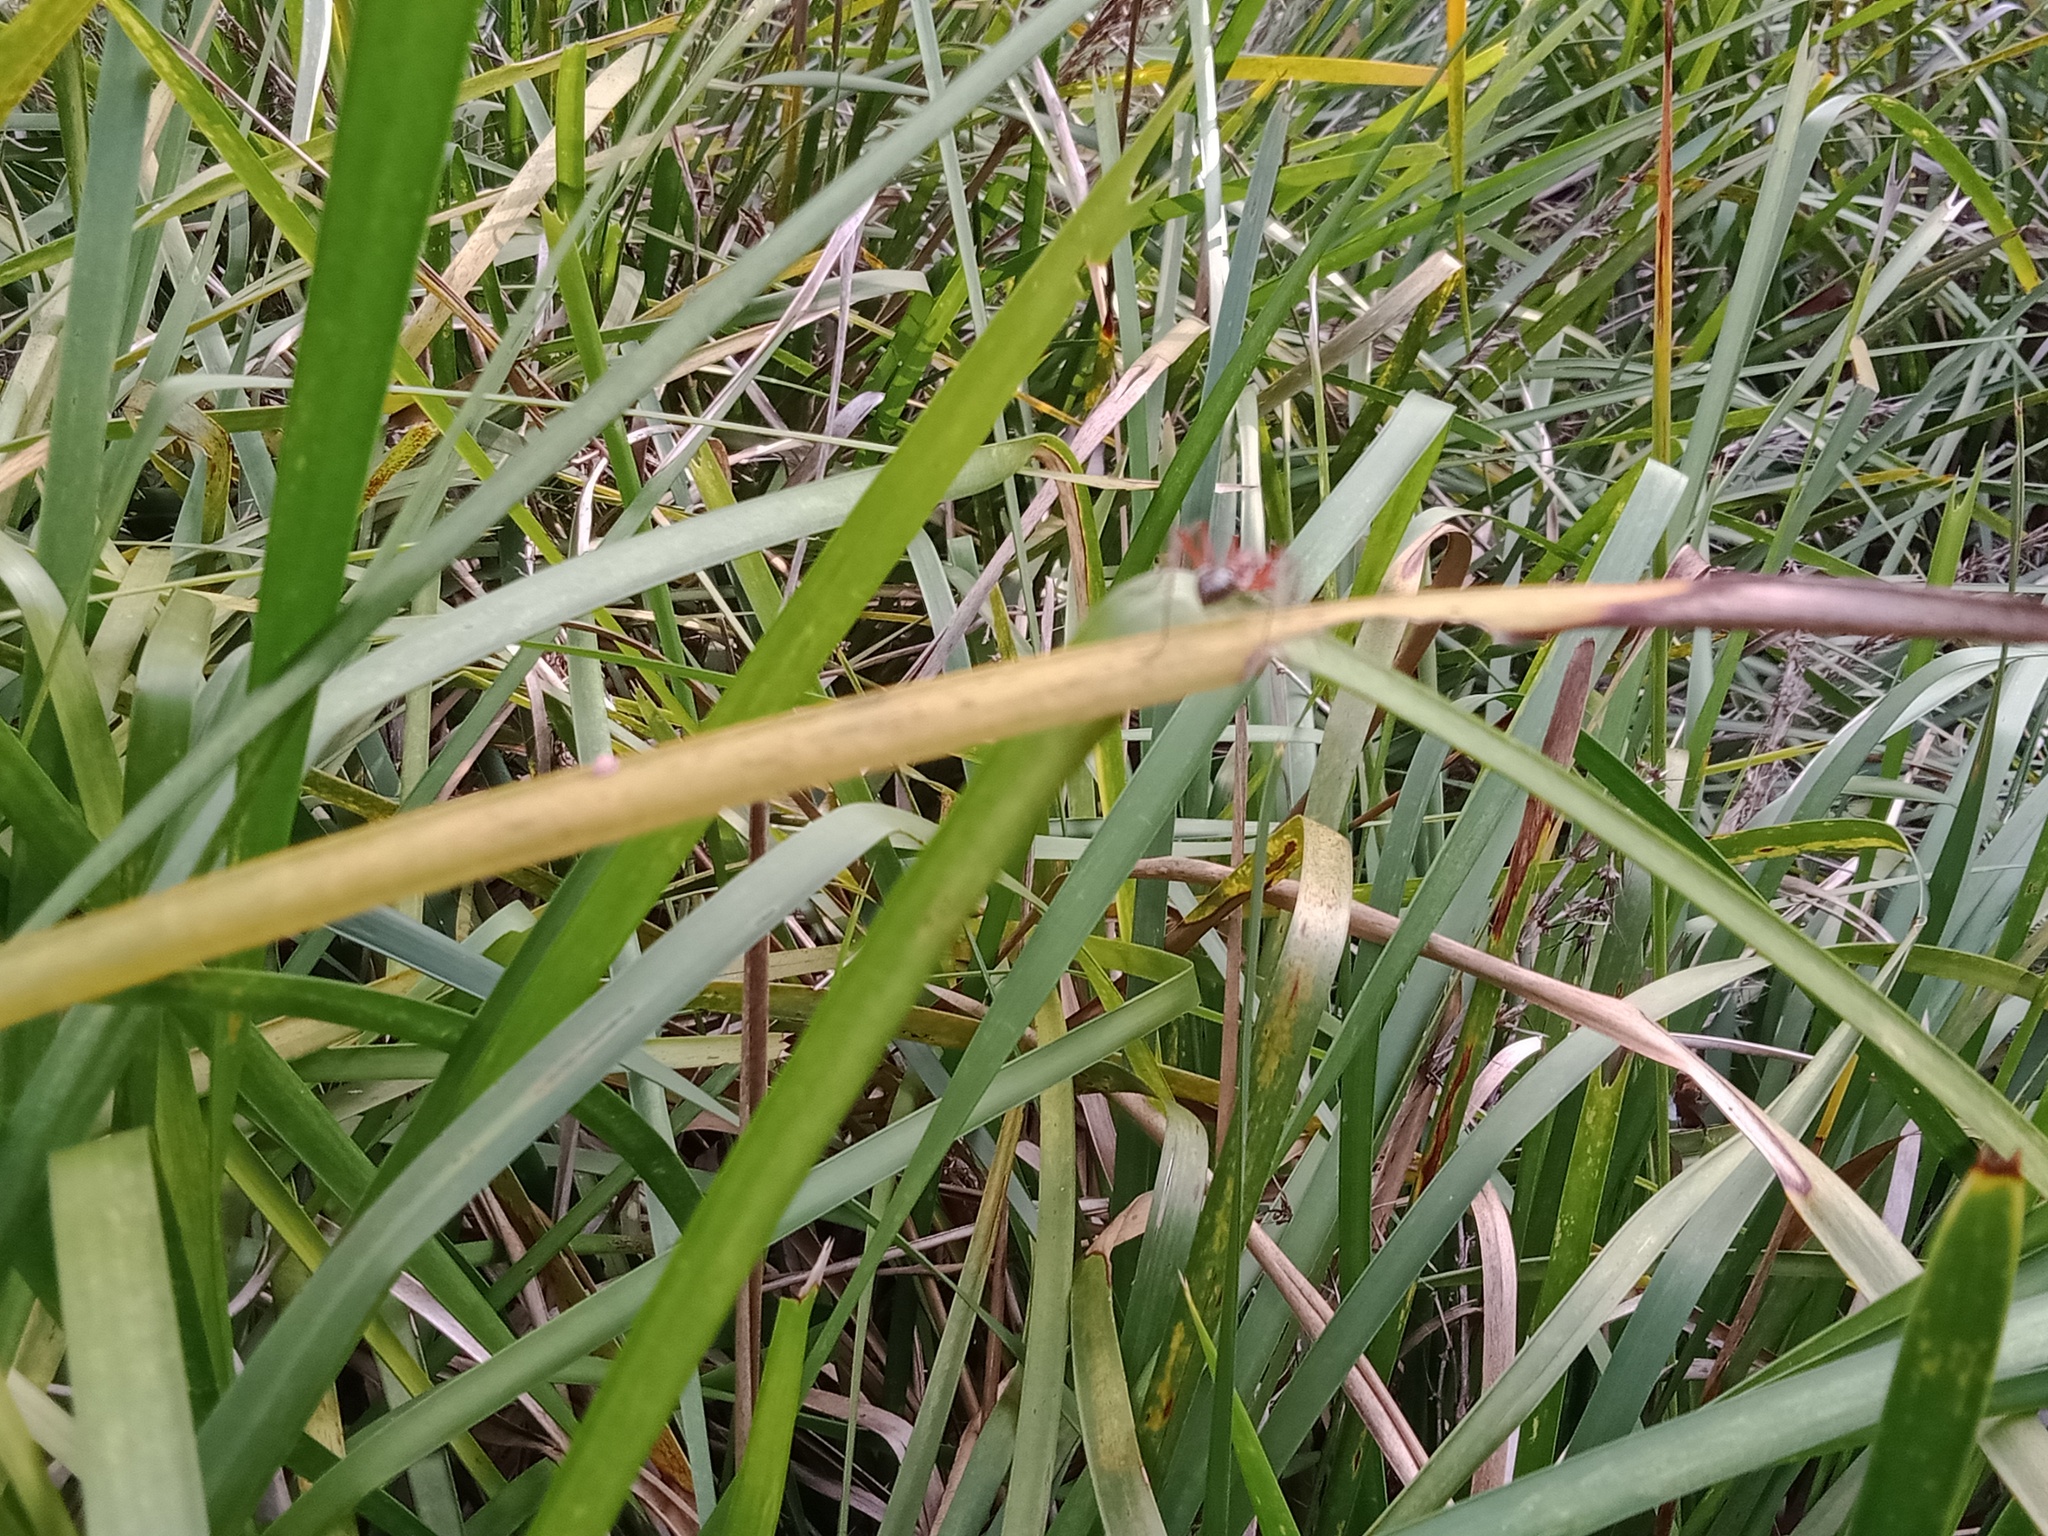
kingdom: Animalia
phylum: Arthropoda
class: Insecta
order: Hymenoptera
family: Formicidae
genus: Myrmecia
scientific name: Myrmecia brevinoda
